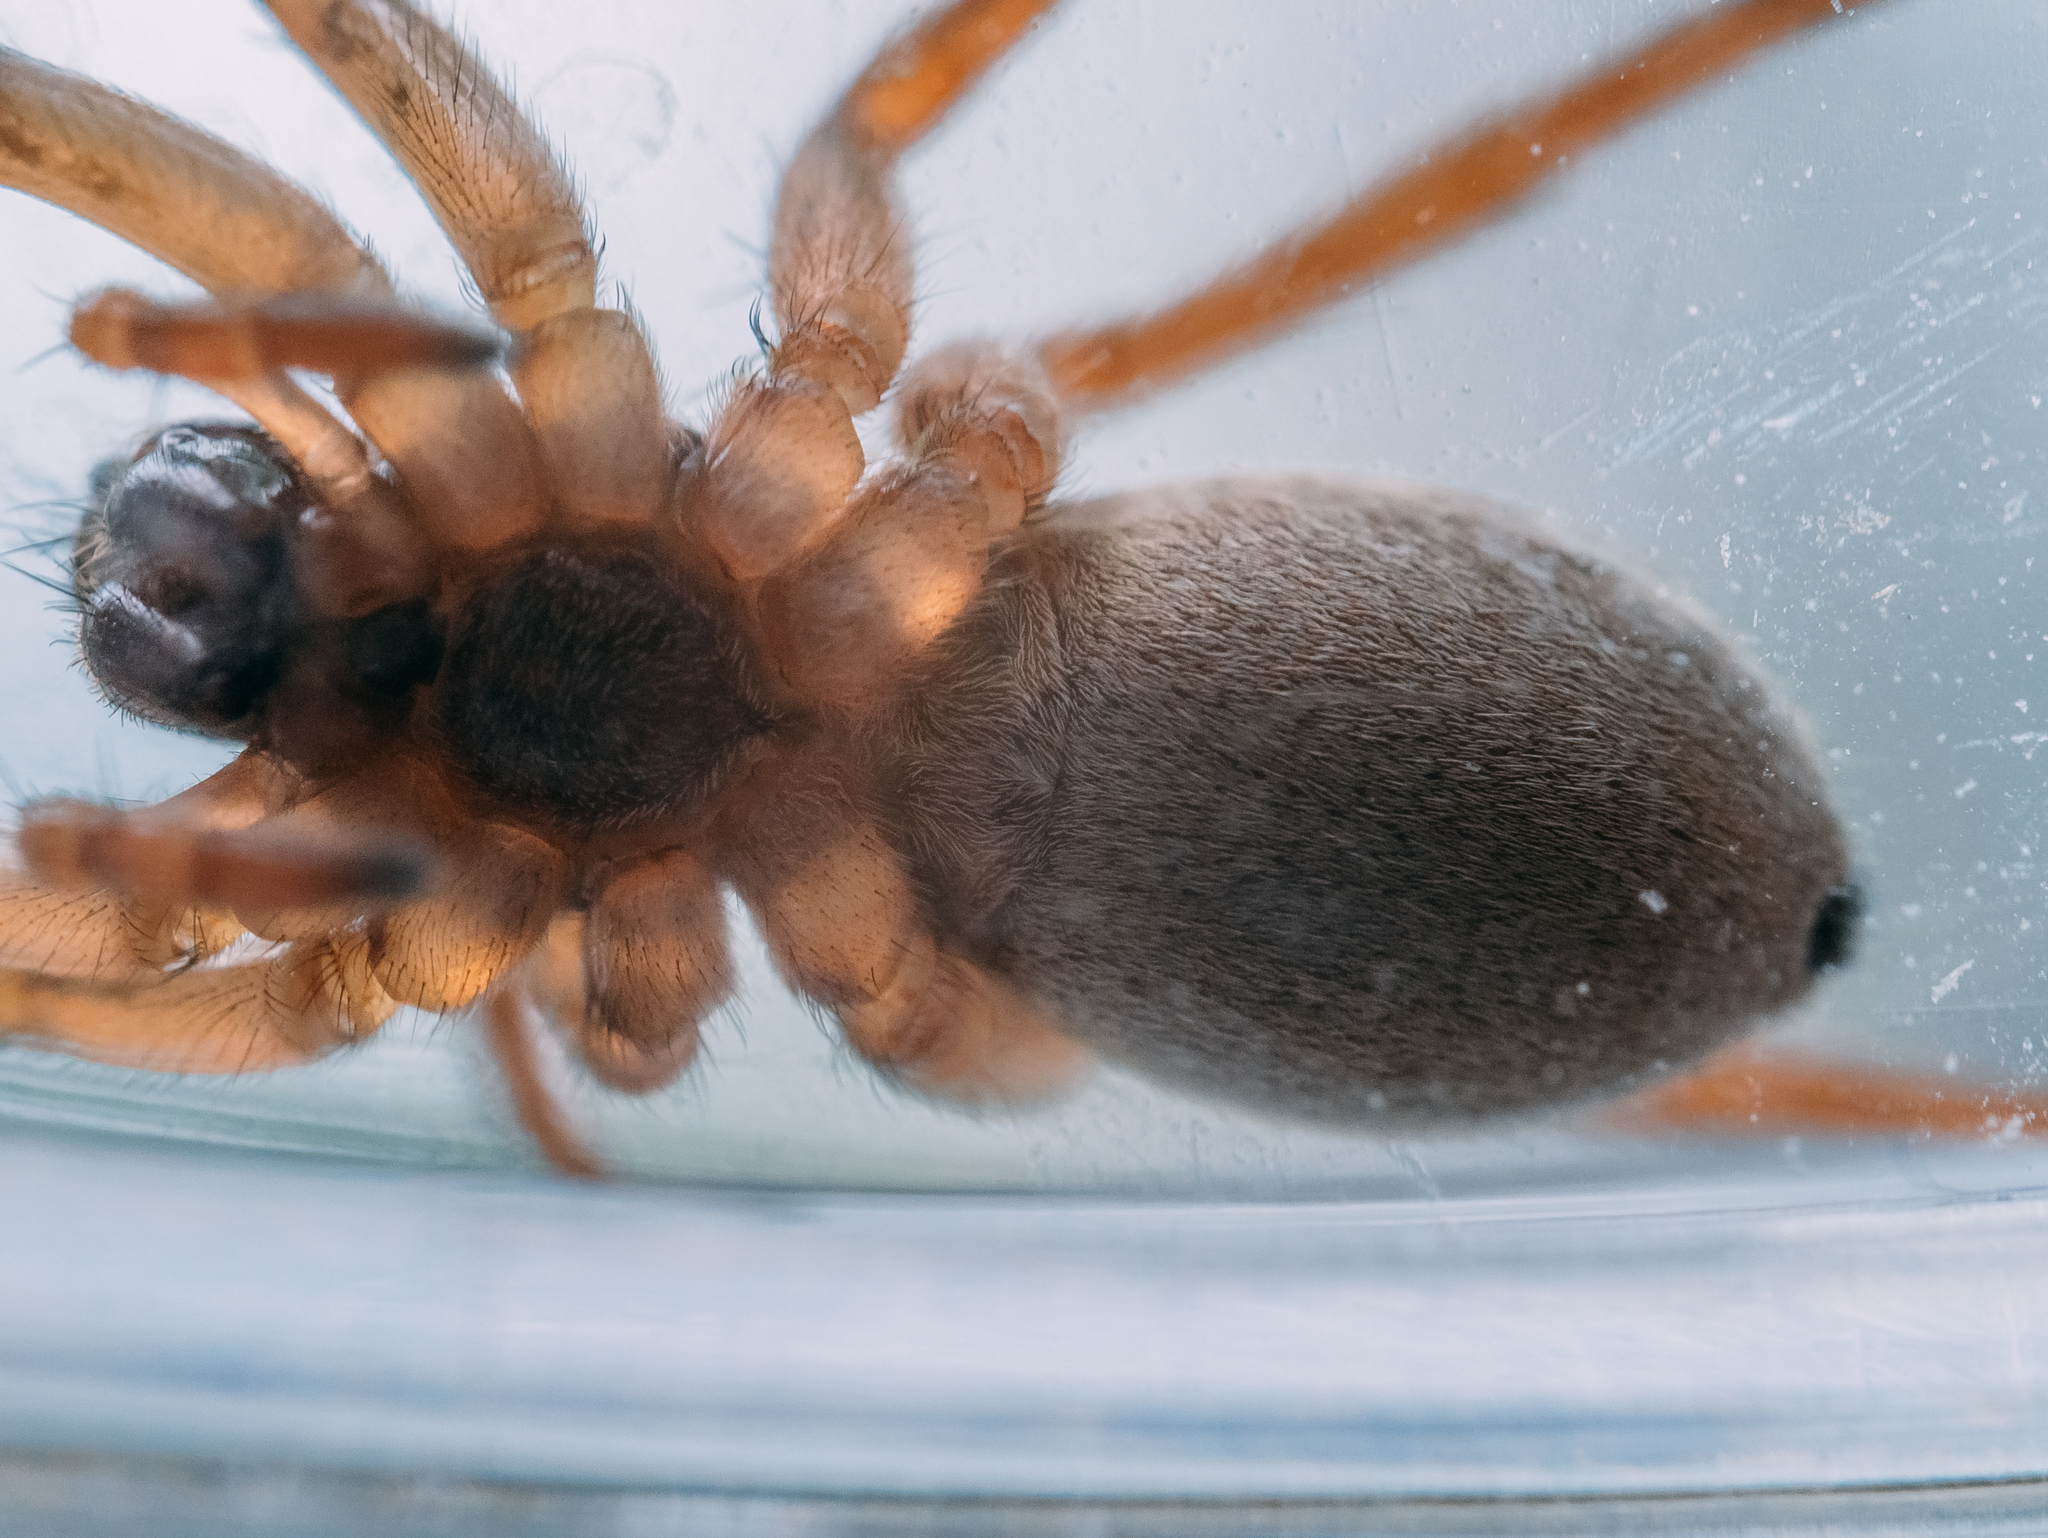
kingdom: Animalia
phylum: Arthropoda
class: Arachnida
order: Araneae
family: Lycosidae
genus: Xerolycosa
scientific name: Xerolycosa nemoralis
